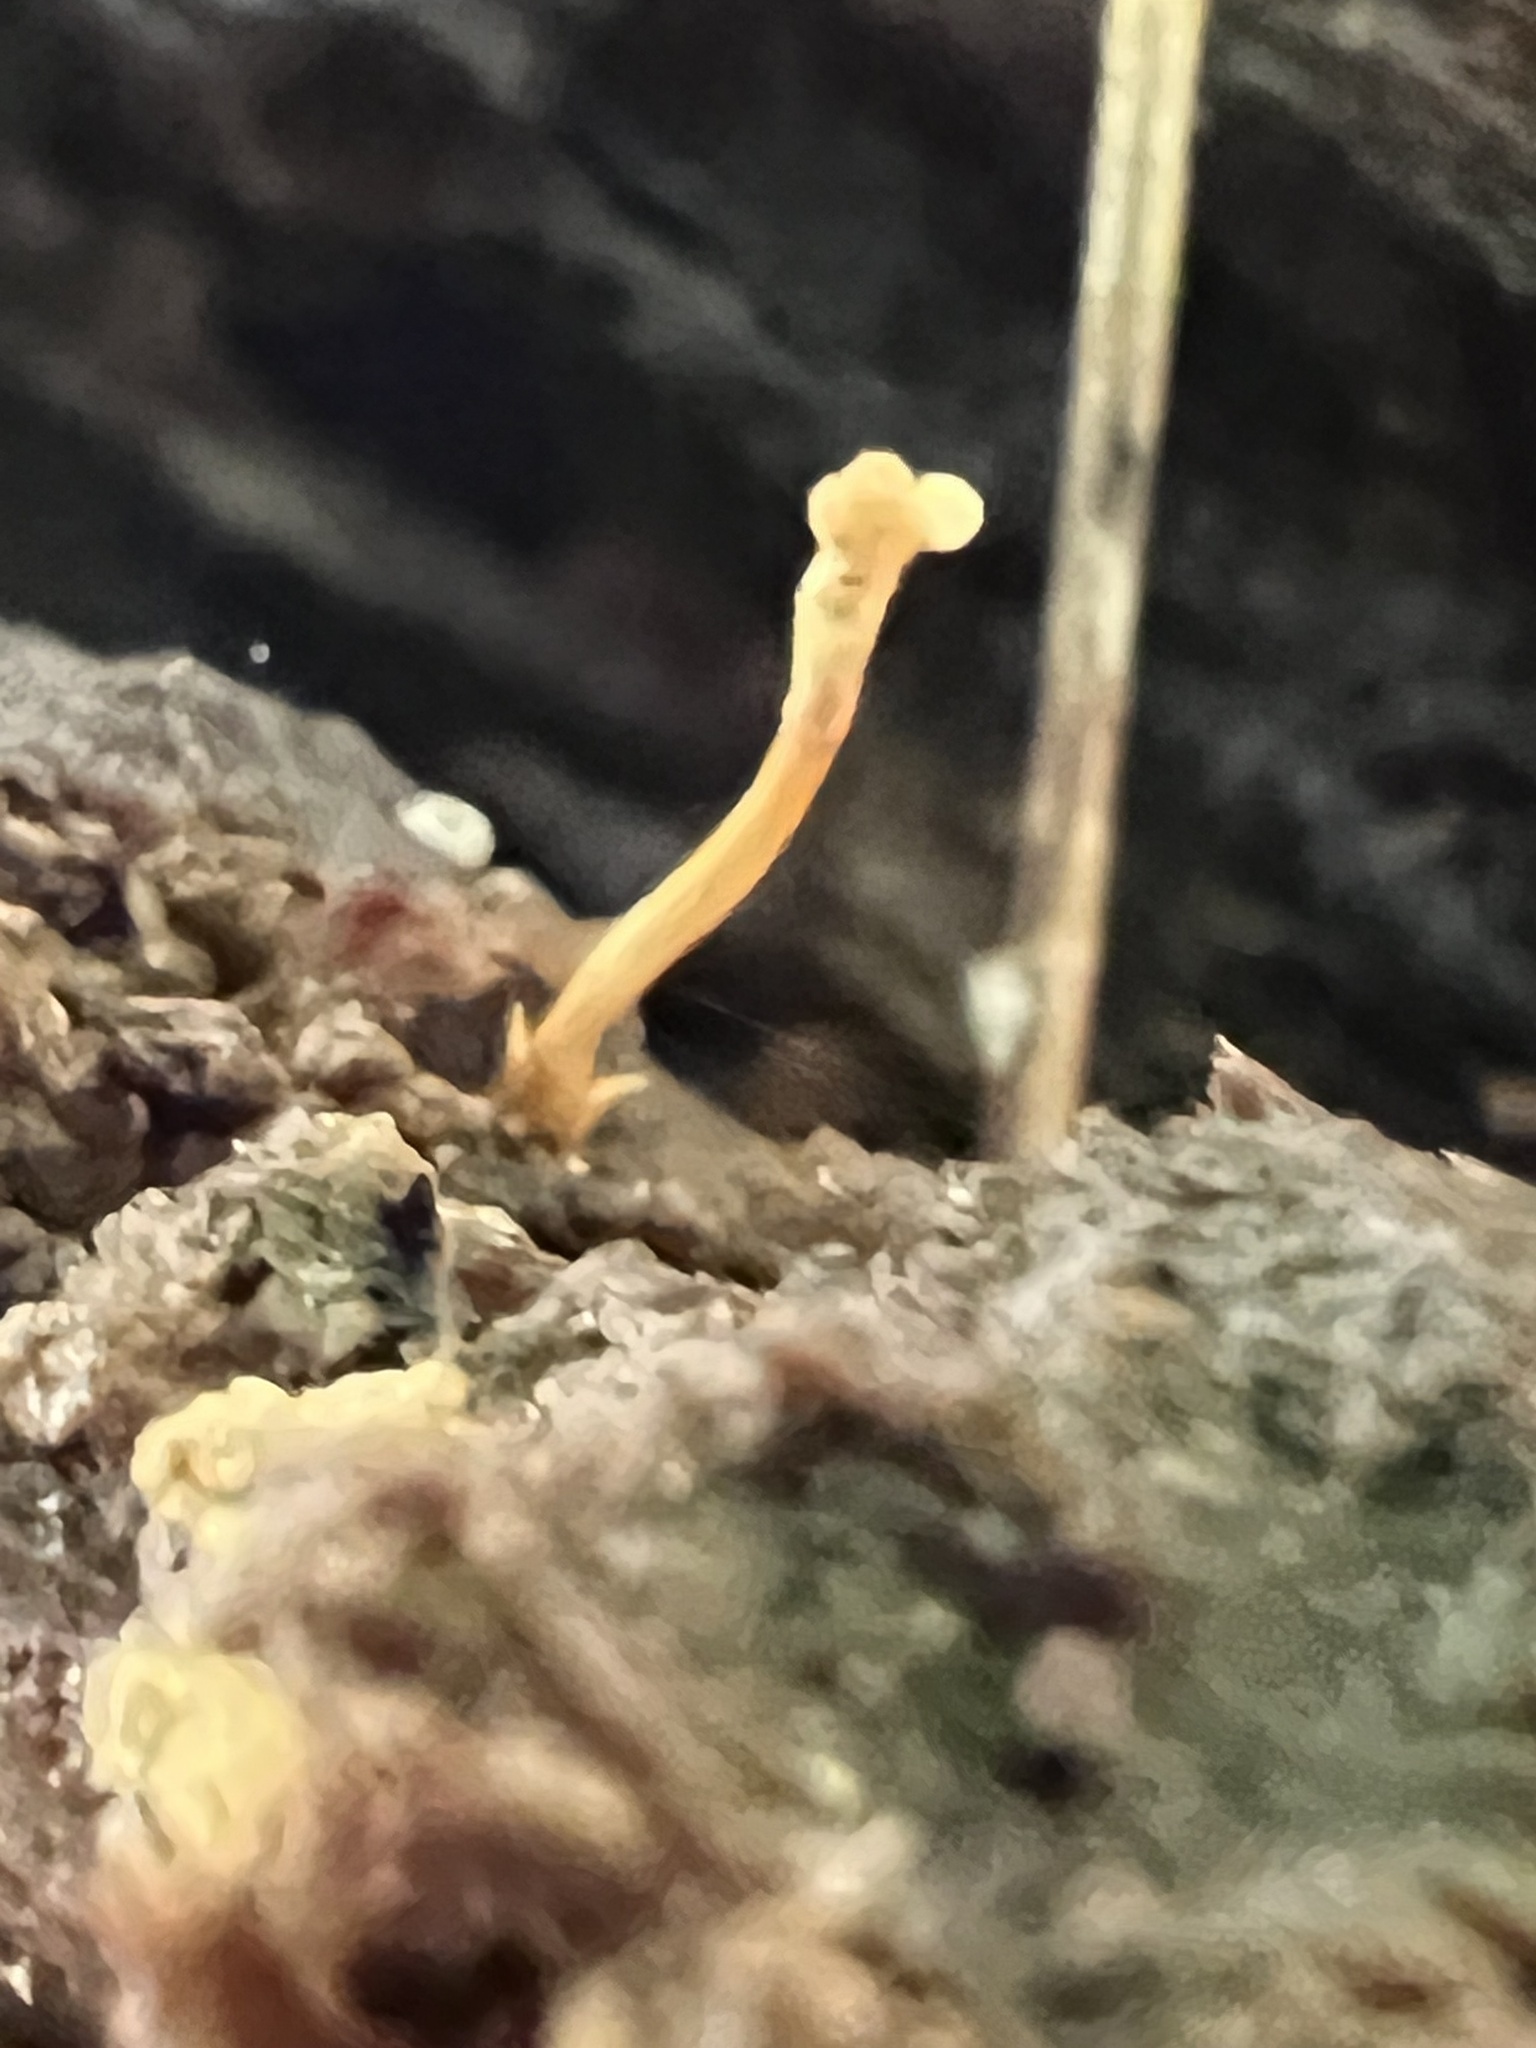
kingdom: Fungi
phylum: Ascomycota
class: Sordariomycetes
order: Hypocreales
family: Ophiocordycipitaceae
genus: Ophiocordyceps
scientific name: Ophiocordyceps variabilis
